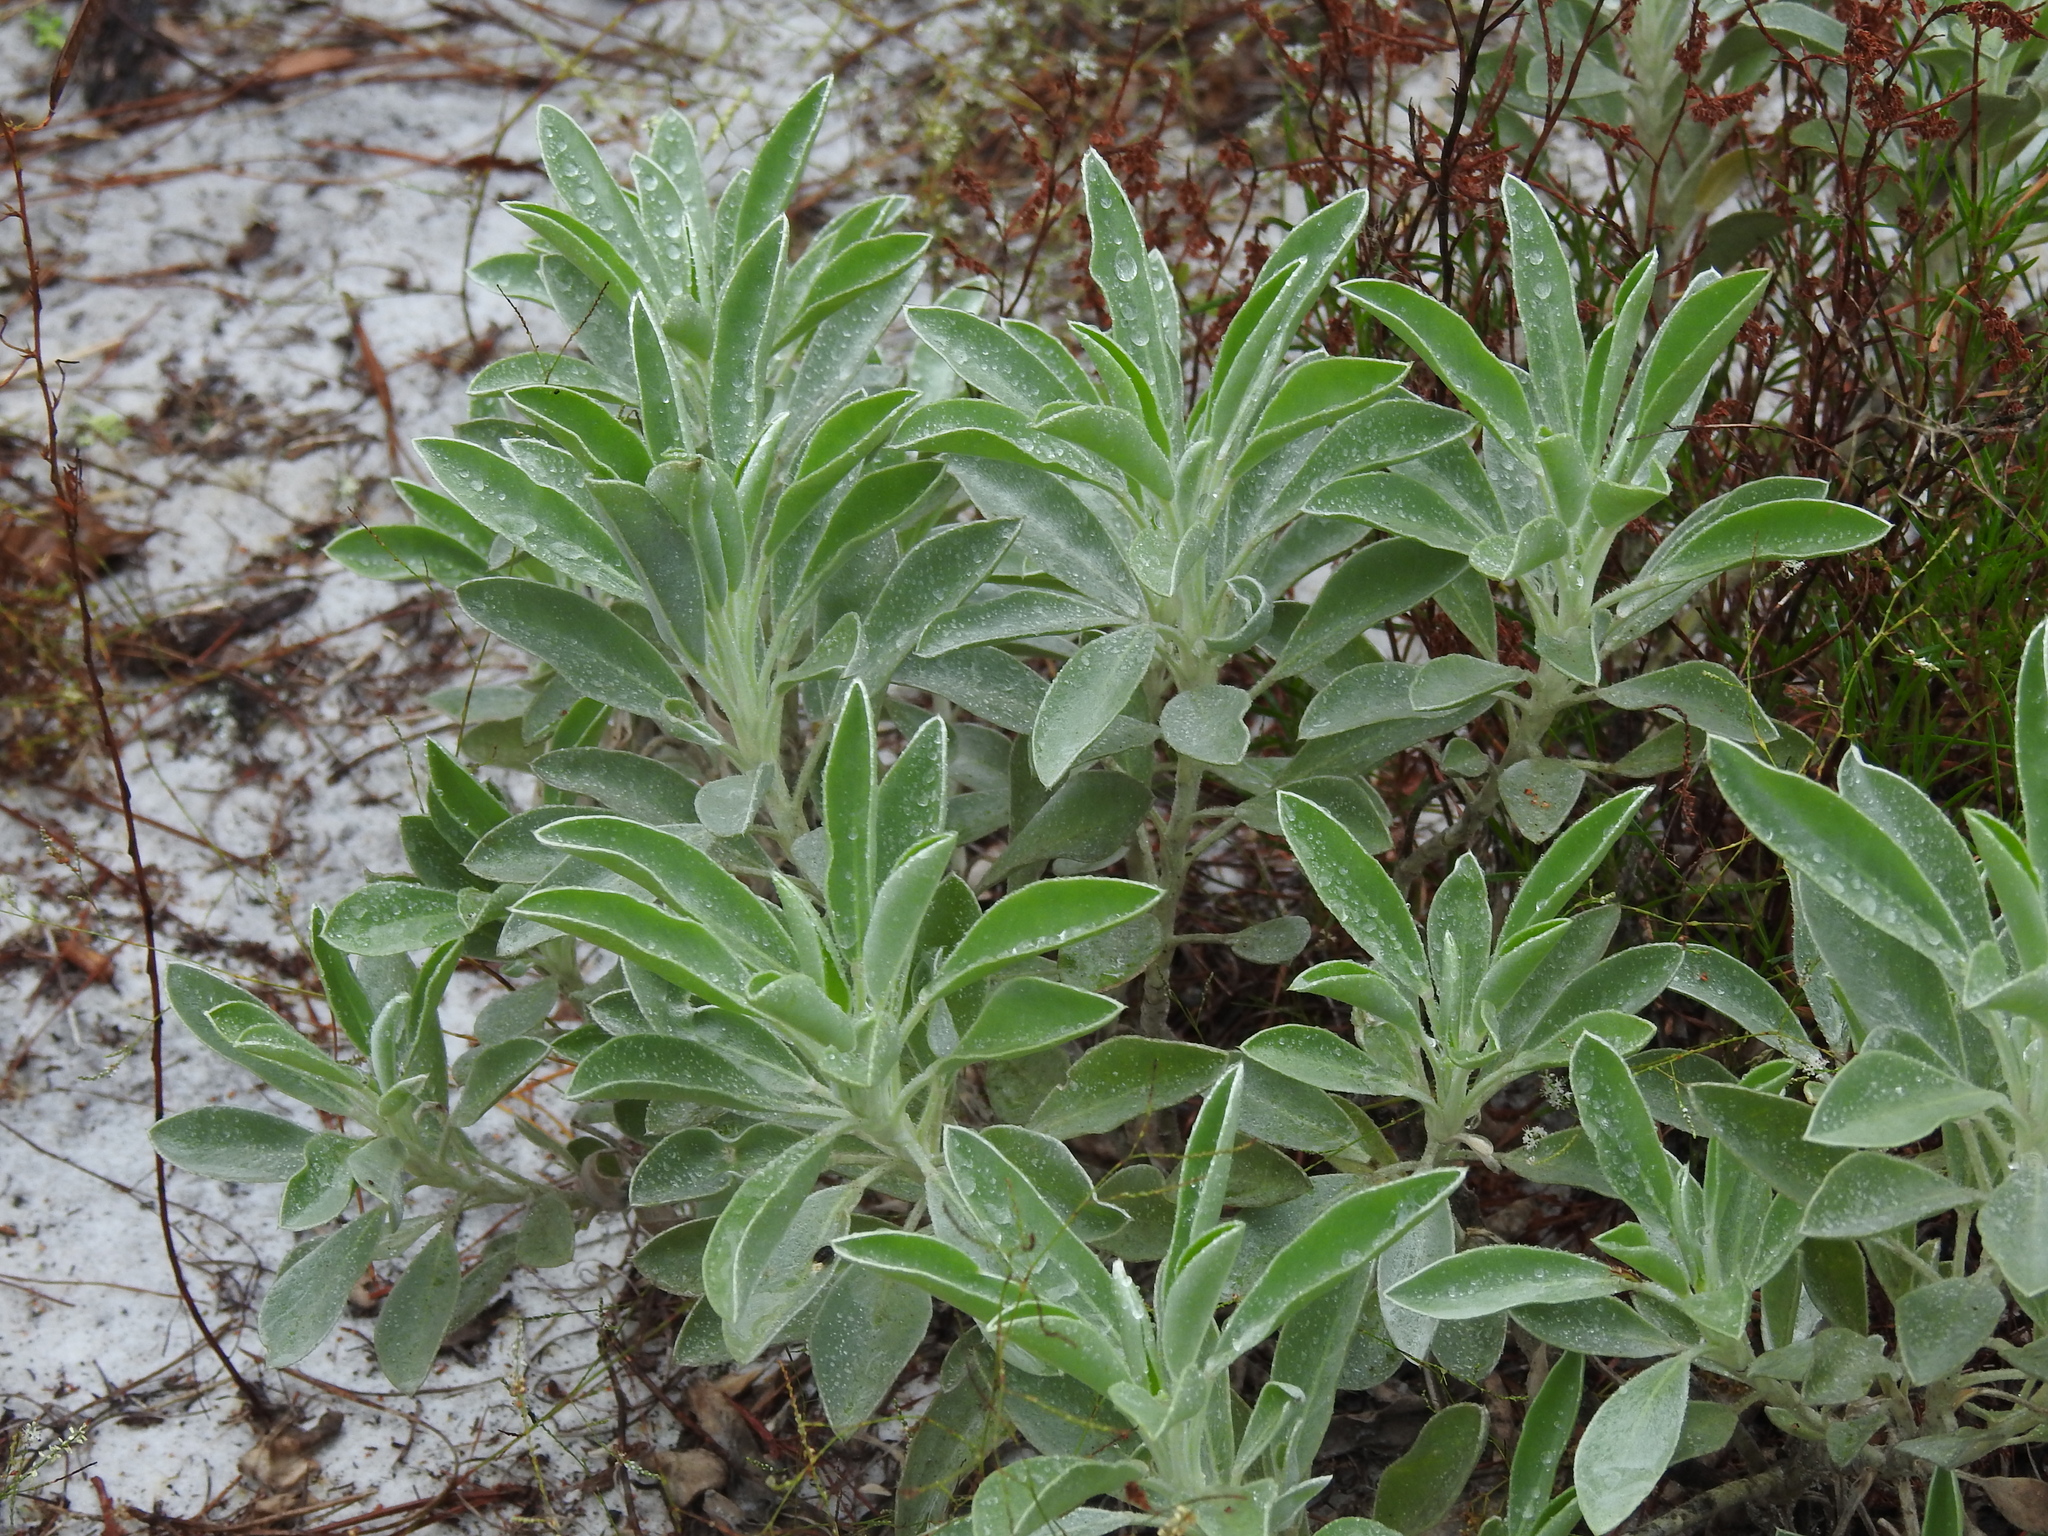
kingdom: Plantae
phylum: Tracheophyta
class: Magnoliopsida
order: Fabales
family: Fabaceae
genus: Lupinus
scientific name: Lupinus westianus
